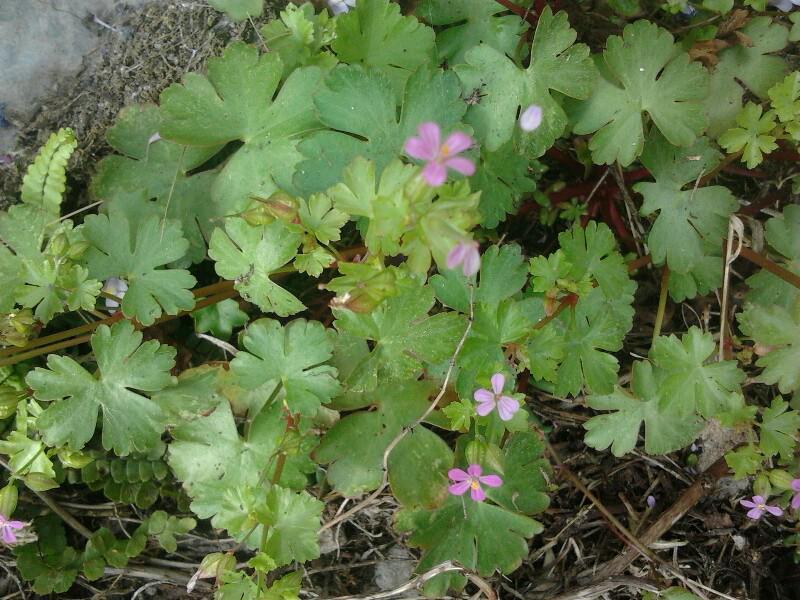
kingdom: Plantae
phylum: Tracheophyta
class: Magnoliopsida
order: Geraniales
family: Geraniaceae
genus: Geranium
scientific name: Geranium lucidum
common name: Shining crane's-bill
